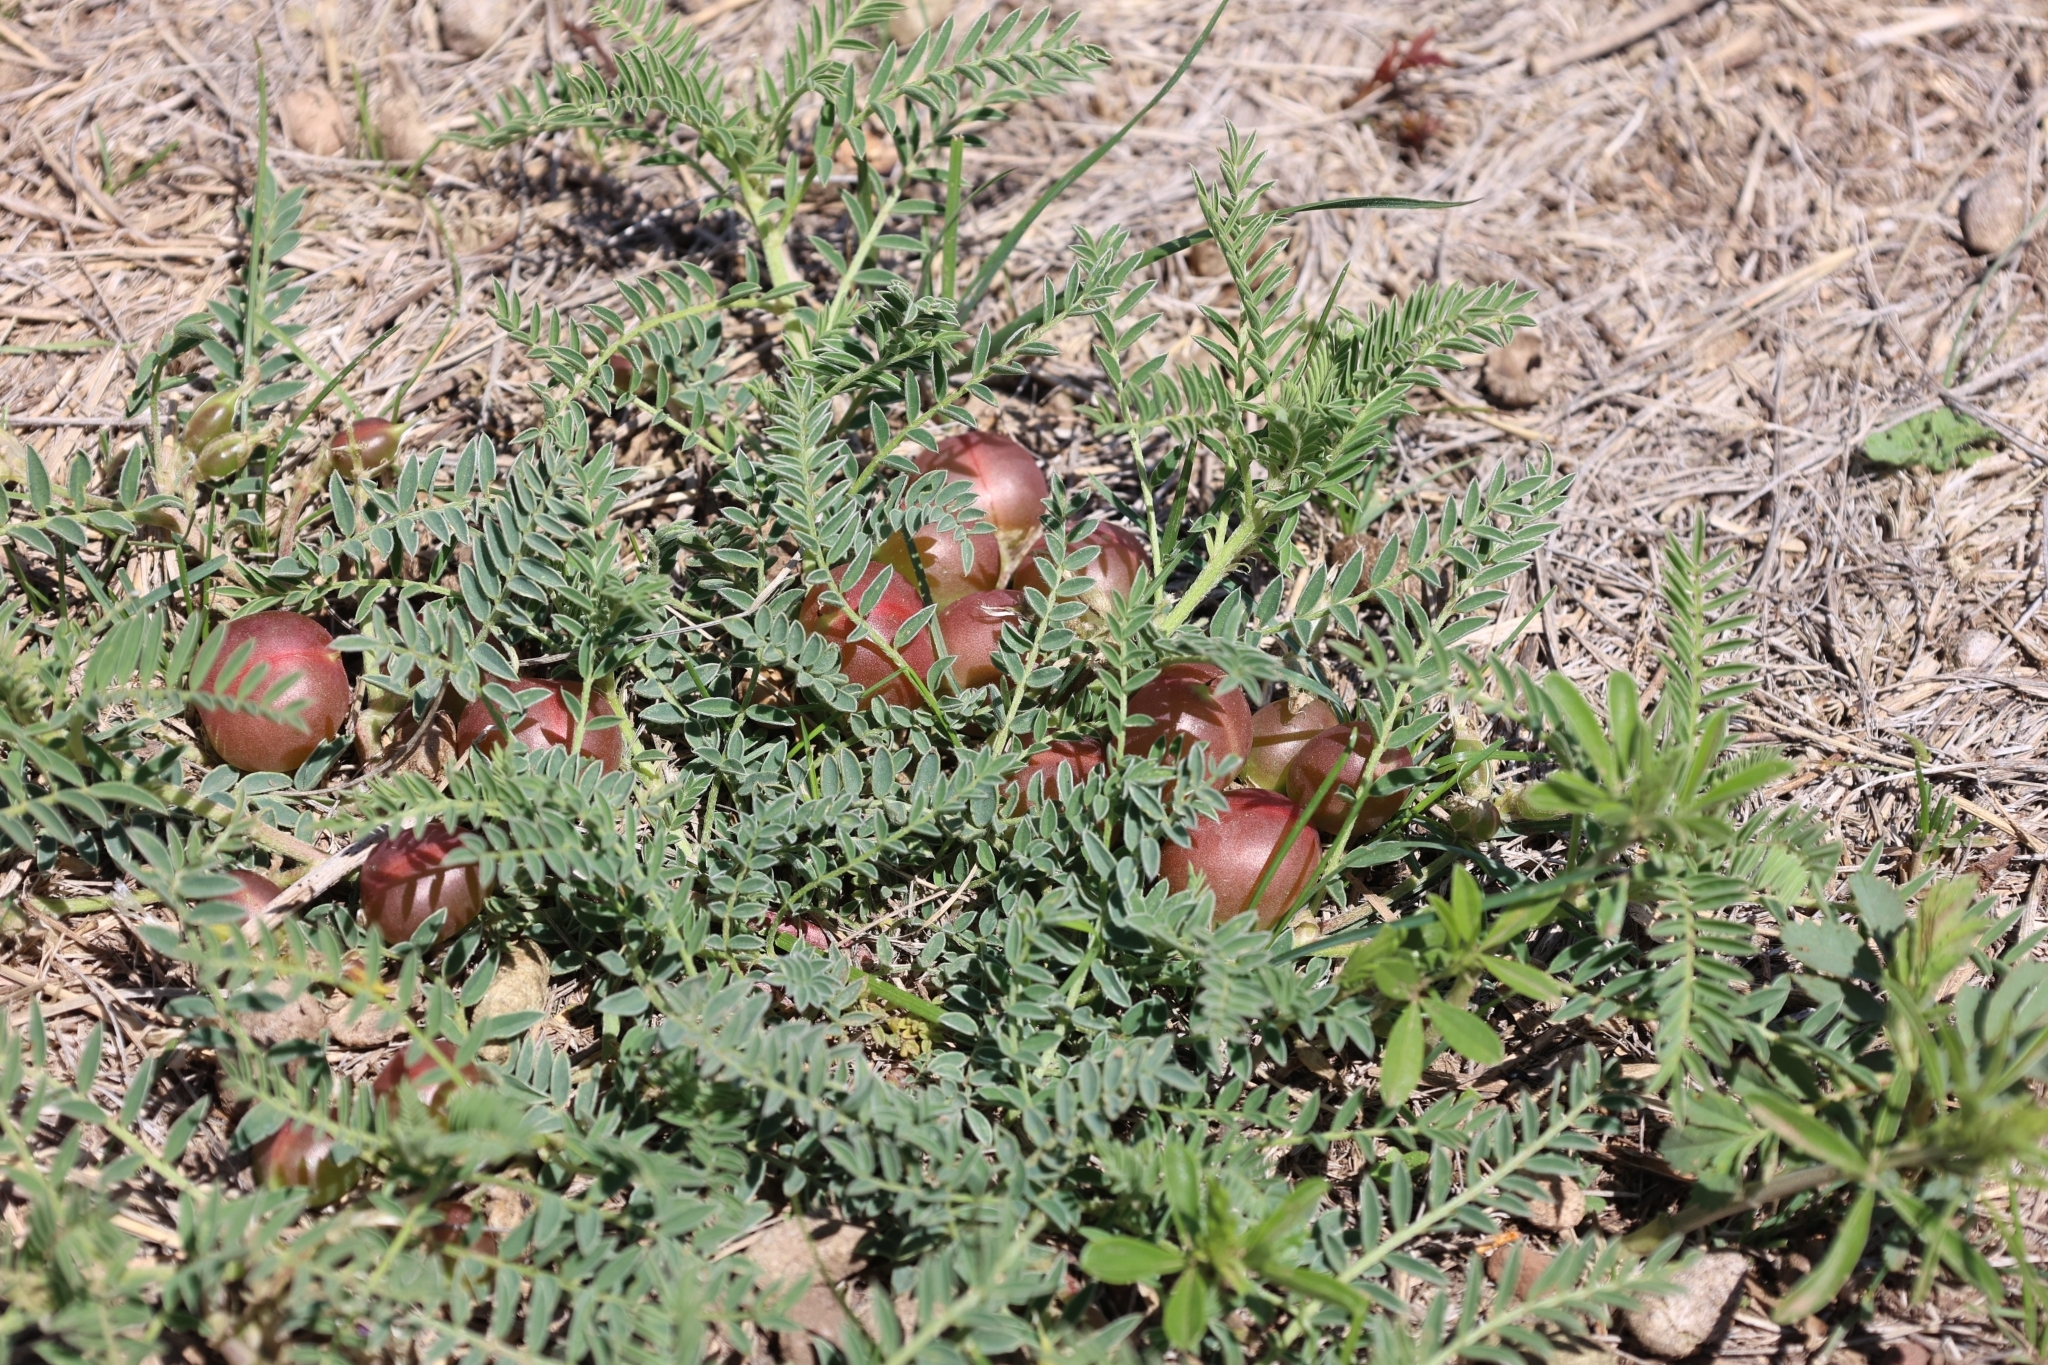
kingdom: Plantae
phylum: Tracheophyta
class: Magnoliopsida
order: Fabales
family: Fabaceae
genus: Astragalus
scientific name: Astragalus crassicarpus
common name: Ground-plum milk-vetch
